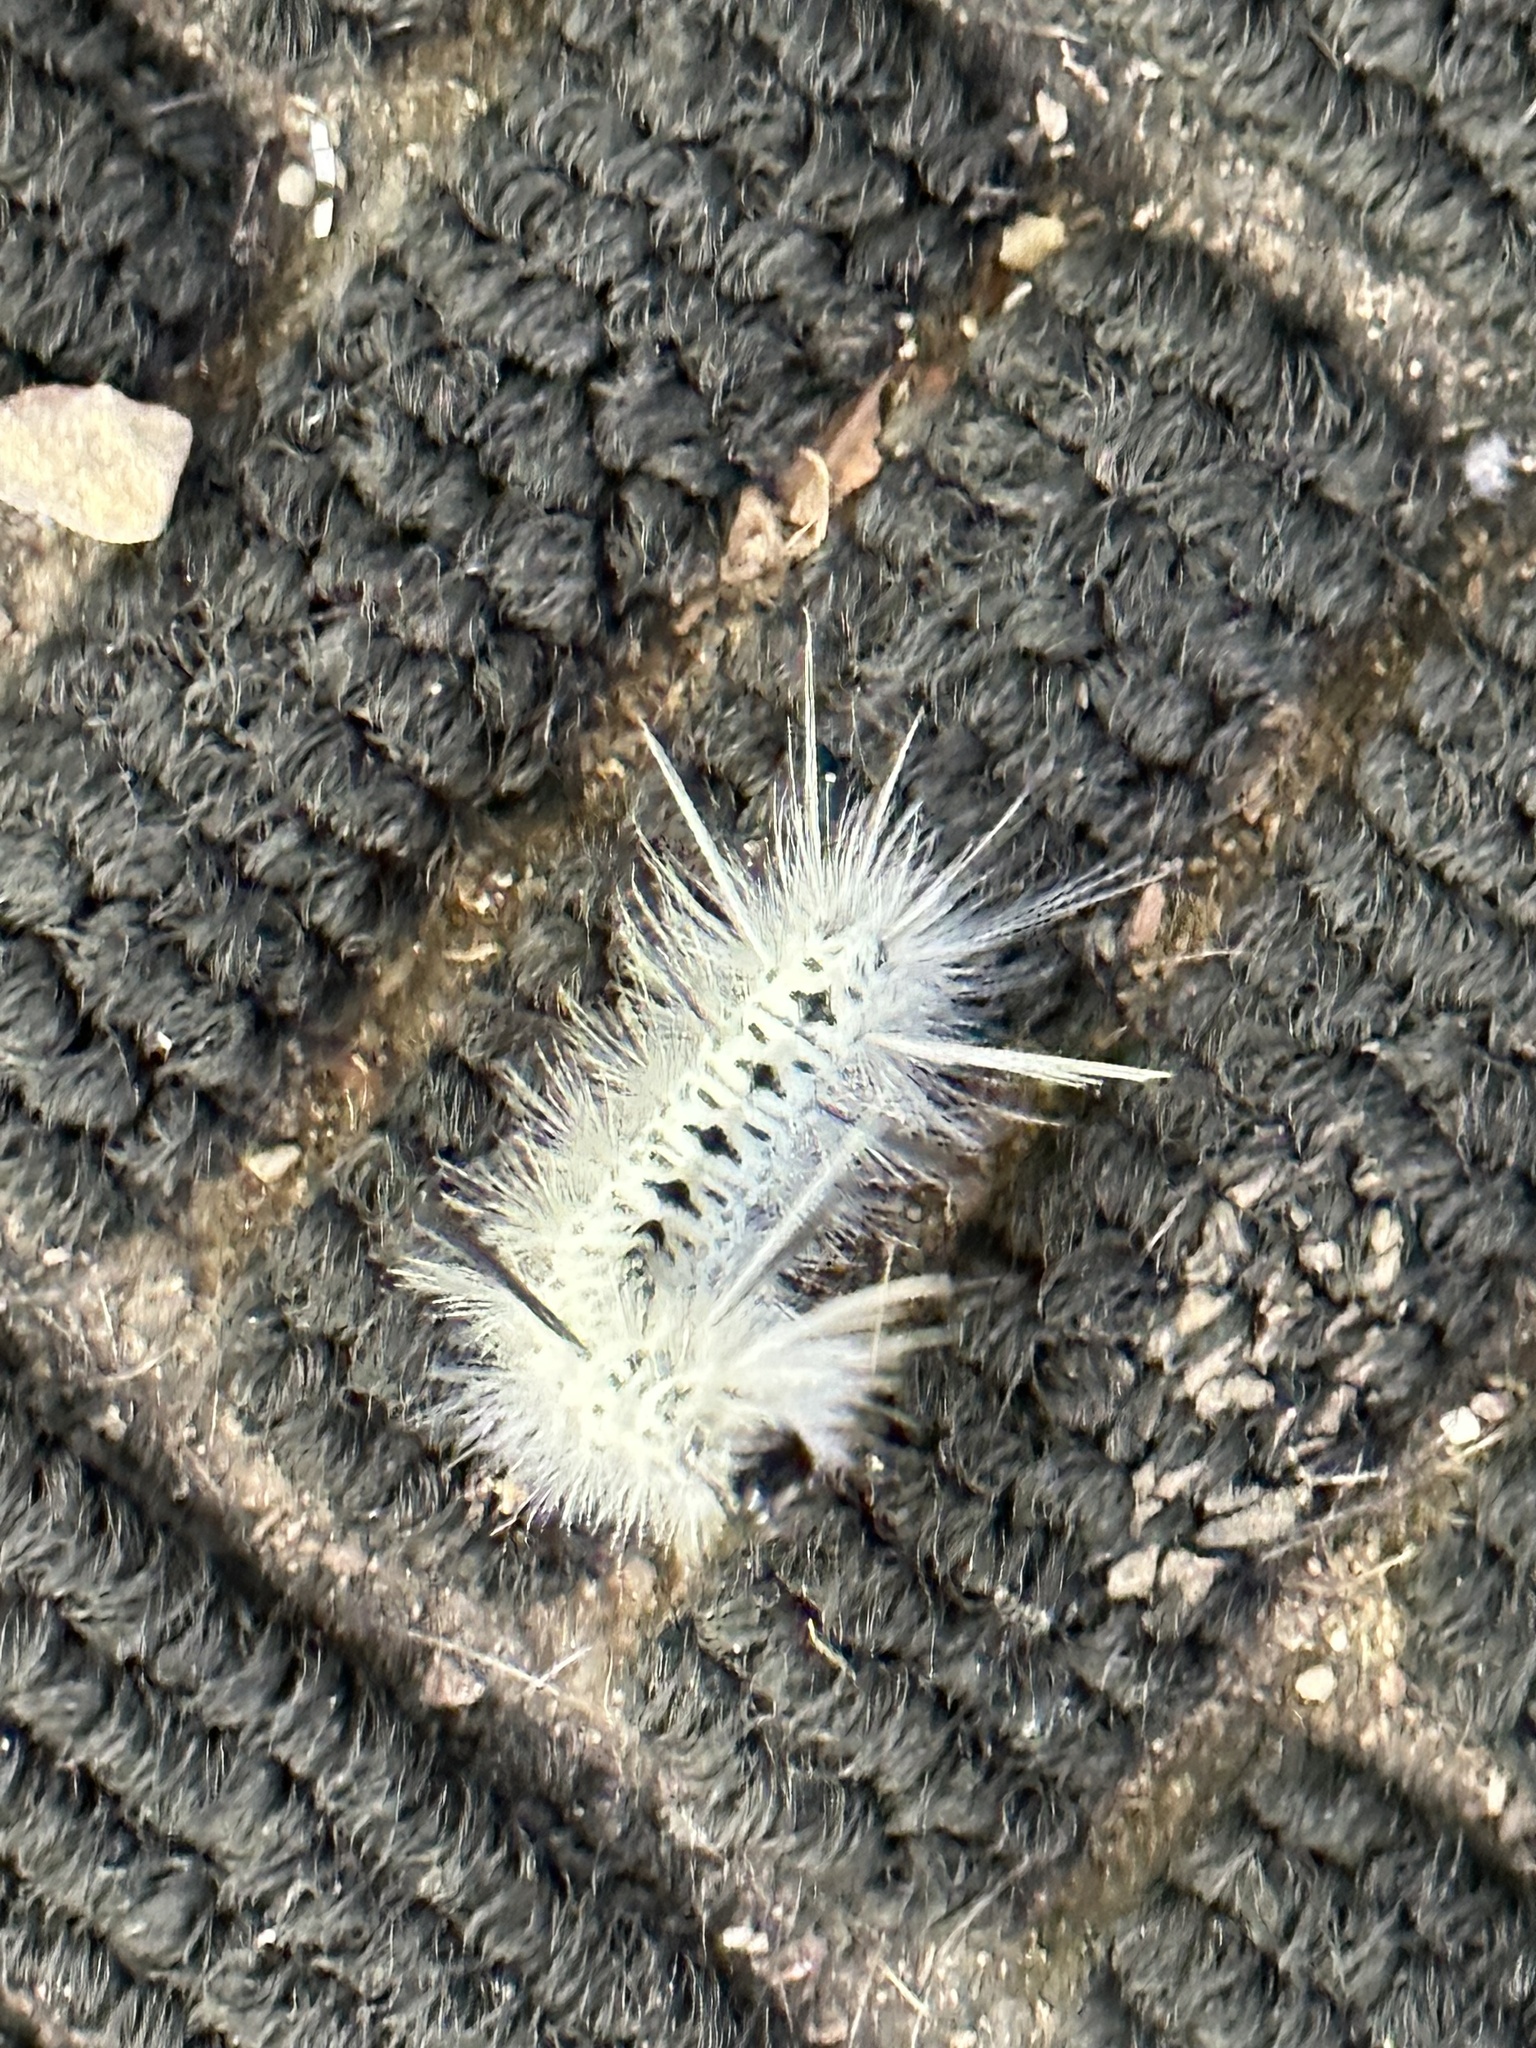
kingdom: Animalia
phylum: Arthropoda
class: Insecta
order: Lepidoptera
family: Erebidae
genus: Lophocampa
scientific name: Lophocampa caryae
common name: Hickory tussock moth
